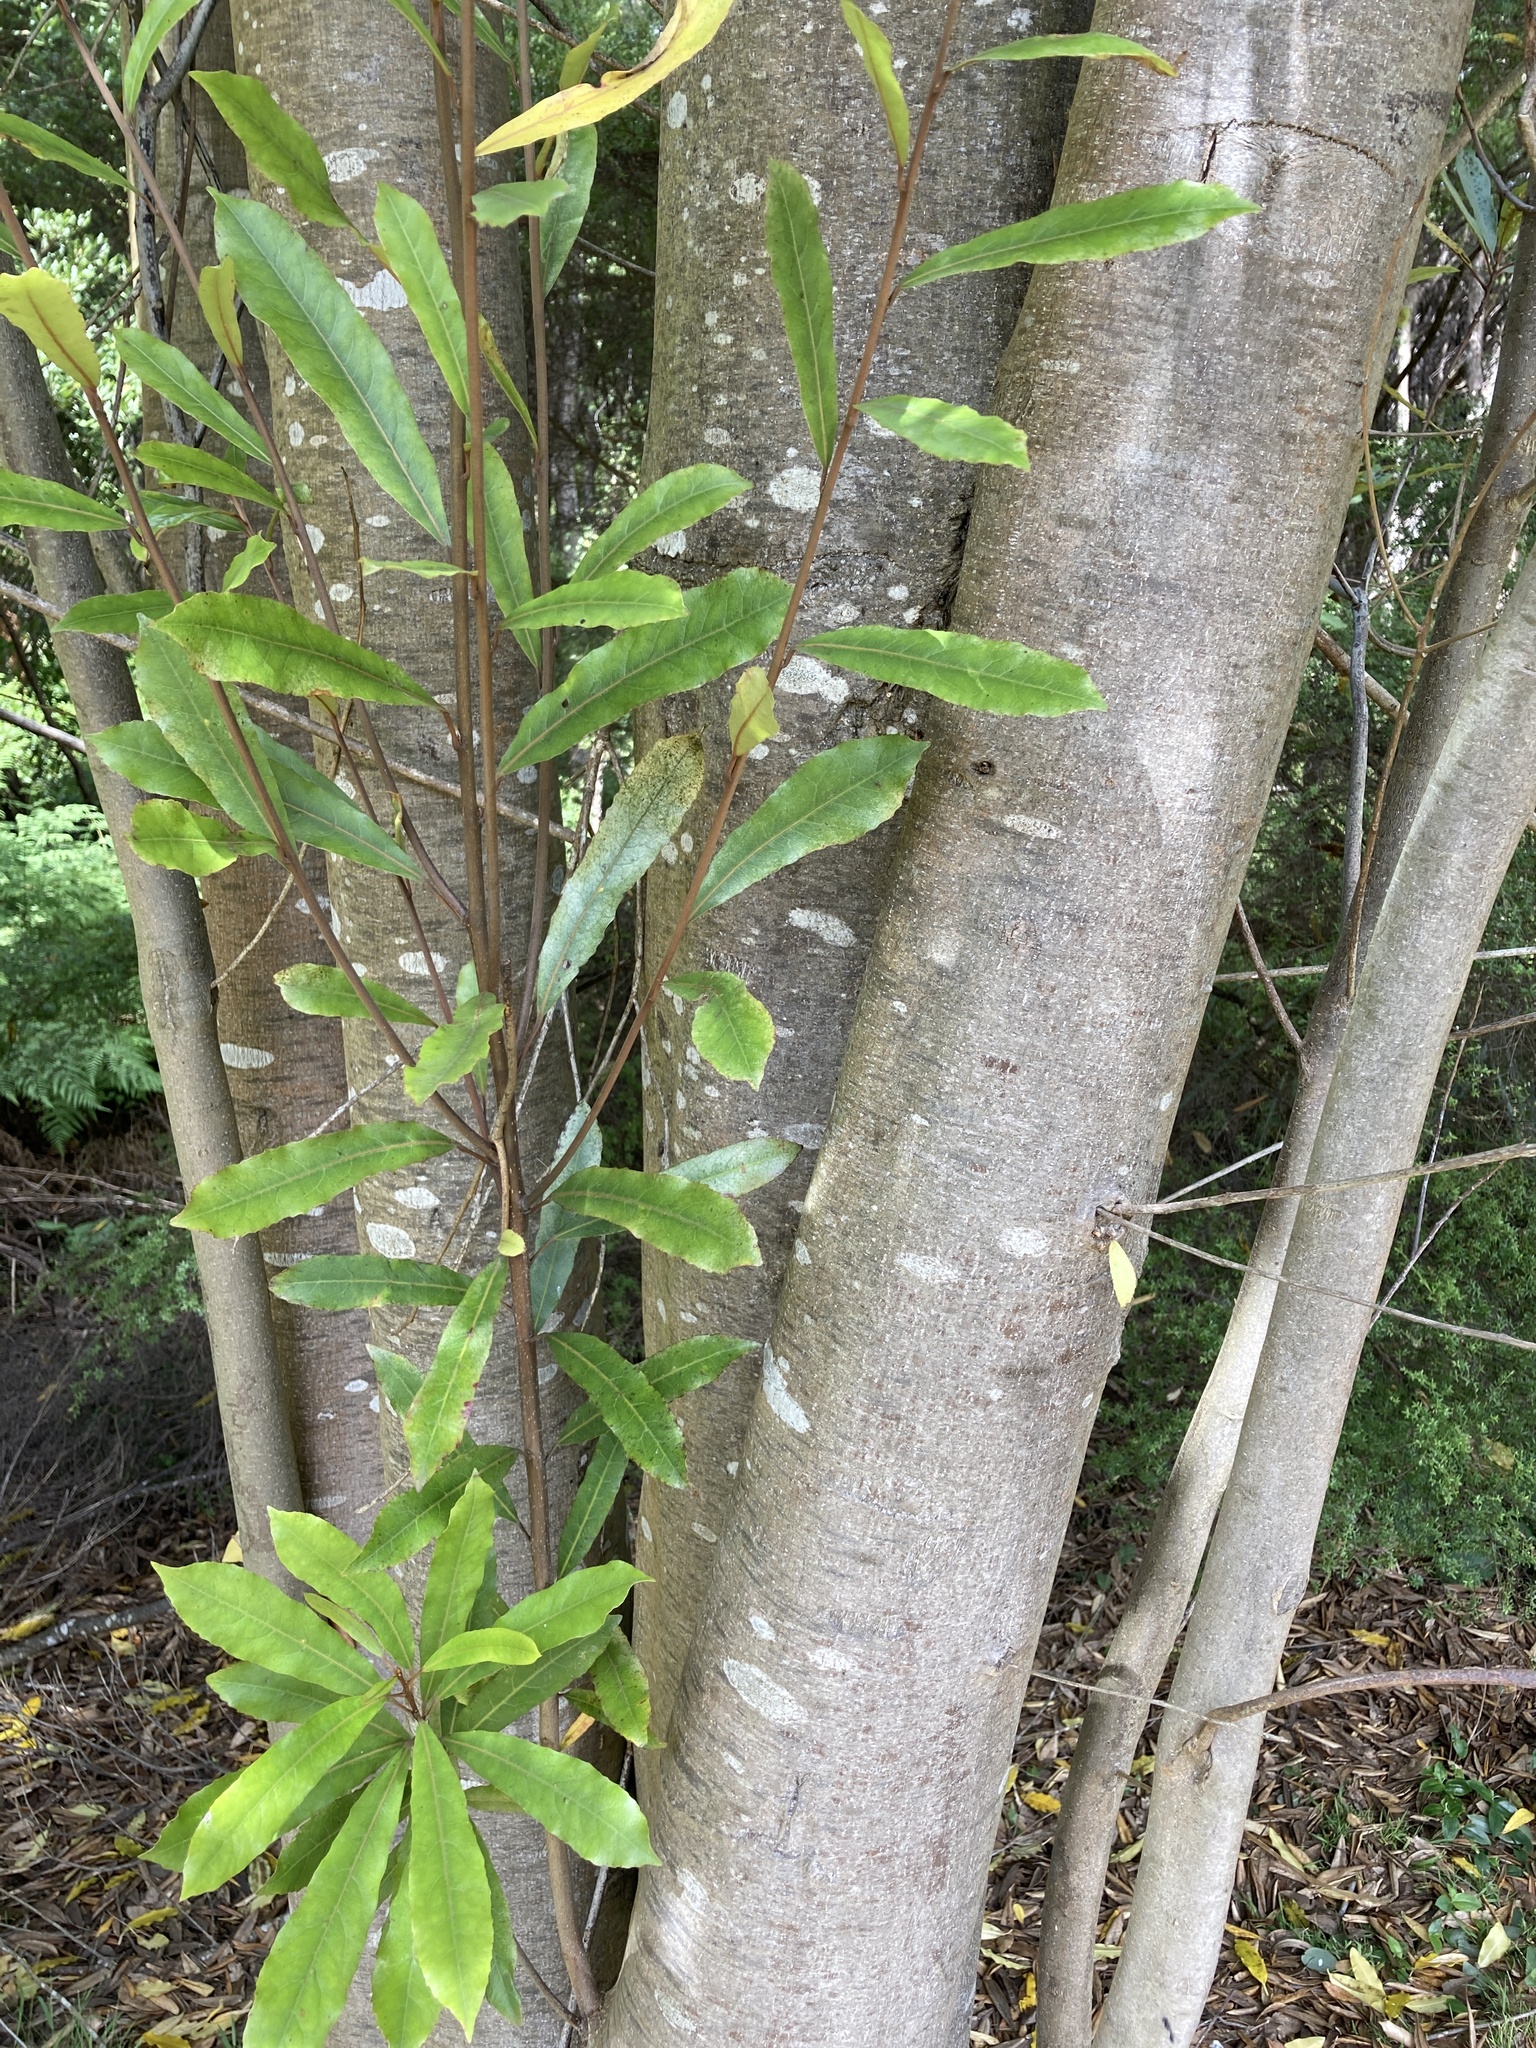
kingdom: Plantae
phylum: Tracheophyta
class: Magnoliopsida
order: Oxalidales
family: Elaeocarpaceae
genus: Elaeocarpus
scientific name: Elaeocarpus dentatus
